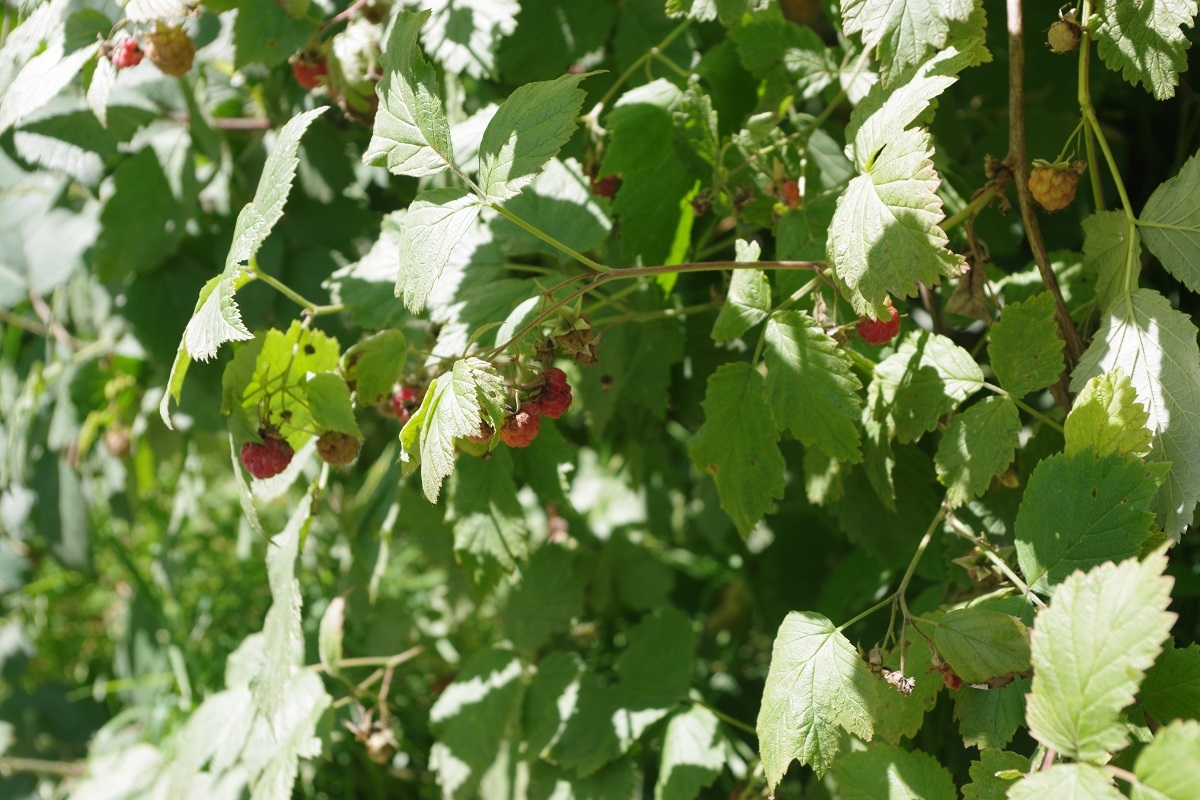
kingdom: Plantae
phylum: Tracheophyta
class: Magnoliopsida
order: Rosales
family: Rosaceae
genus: Rubus
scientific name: Rubus idaeus
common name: Raspberry
